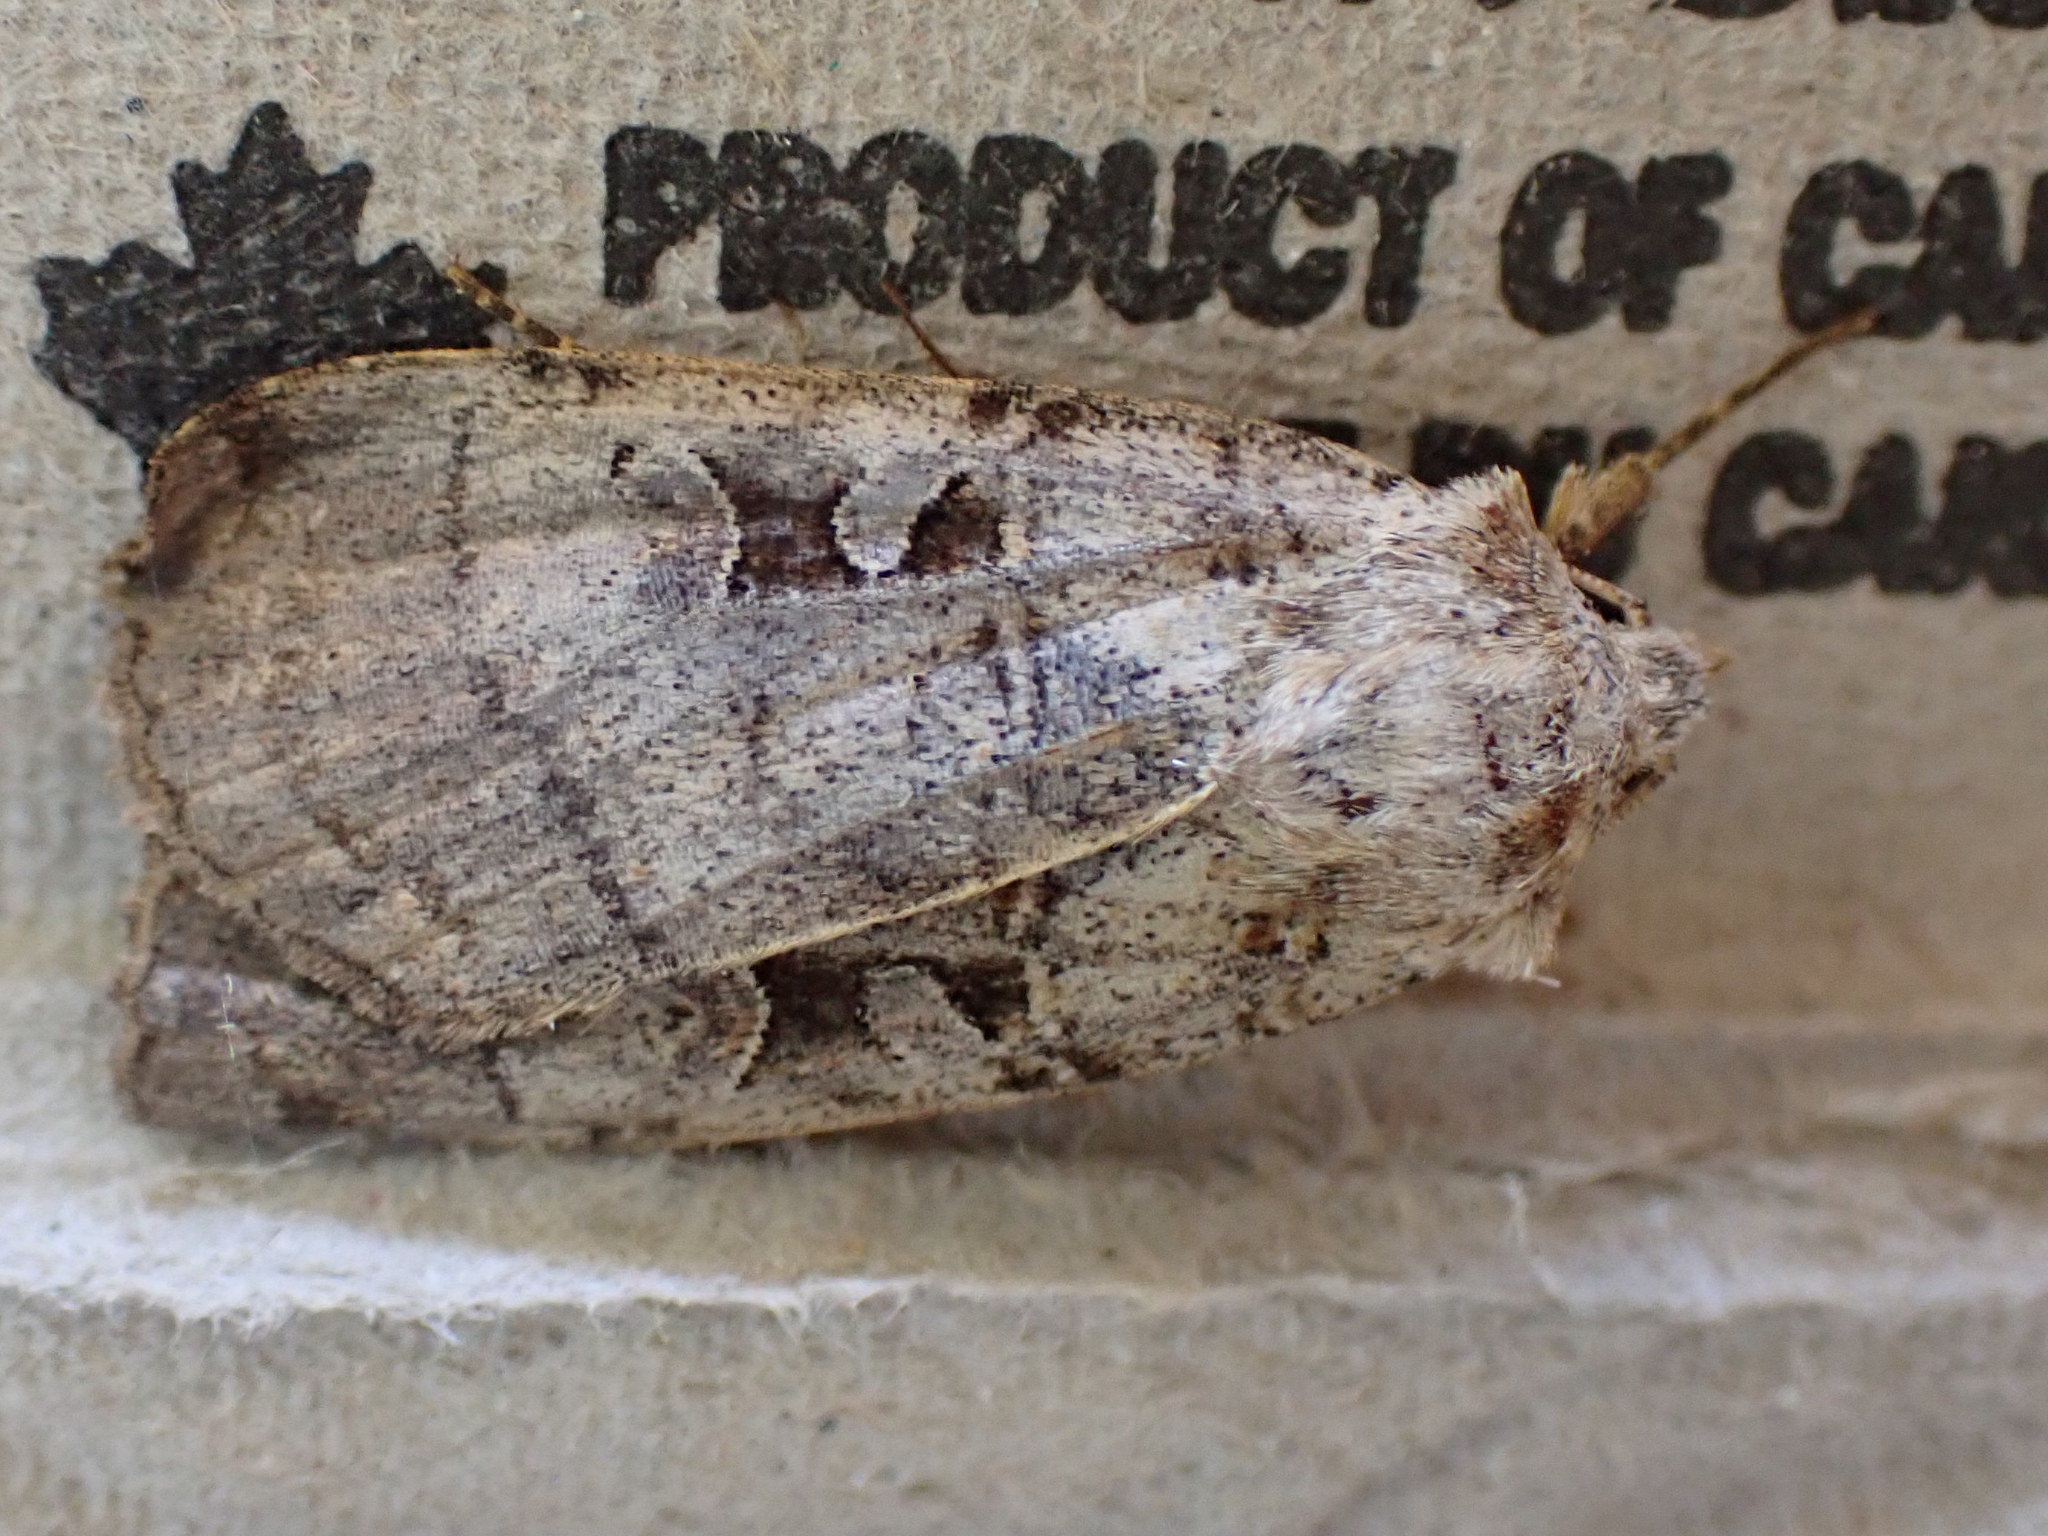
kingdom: Animalia
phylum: Arthropoda
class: Insecta
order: Lepidoptera
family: Noctuidae
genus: Xestia
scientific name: Xestia normaniana
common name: Norman's dart moth
